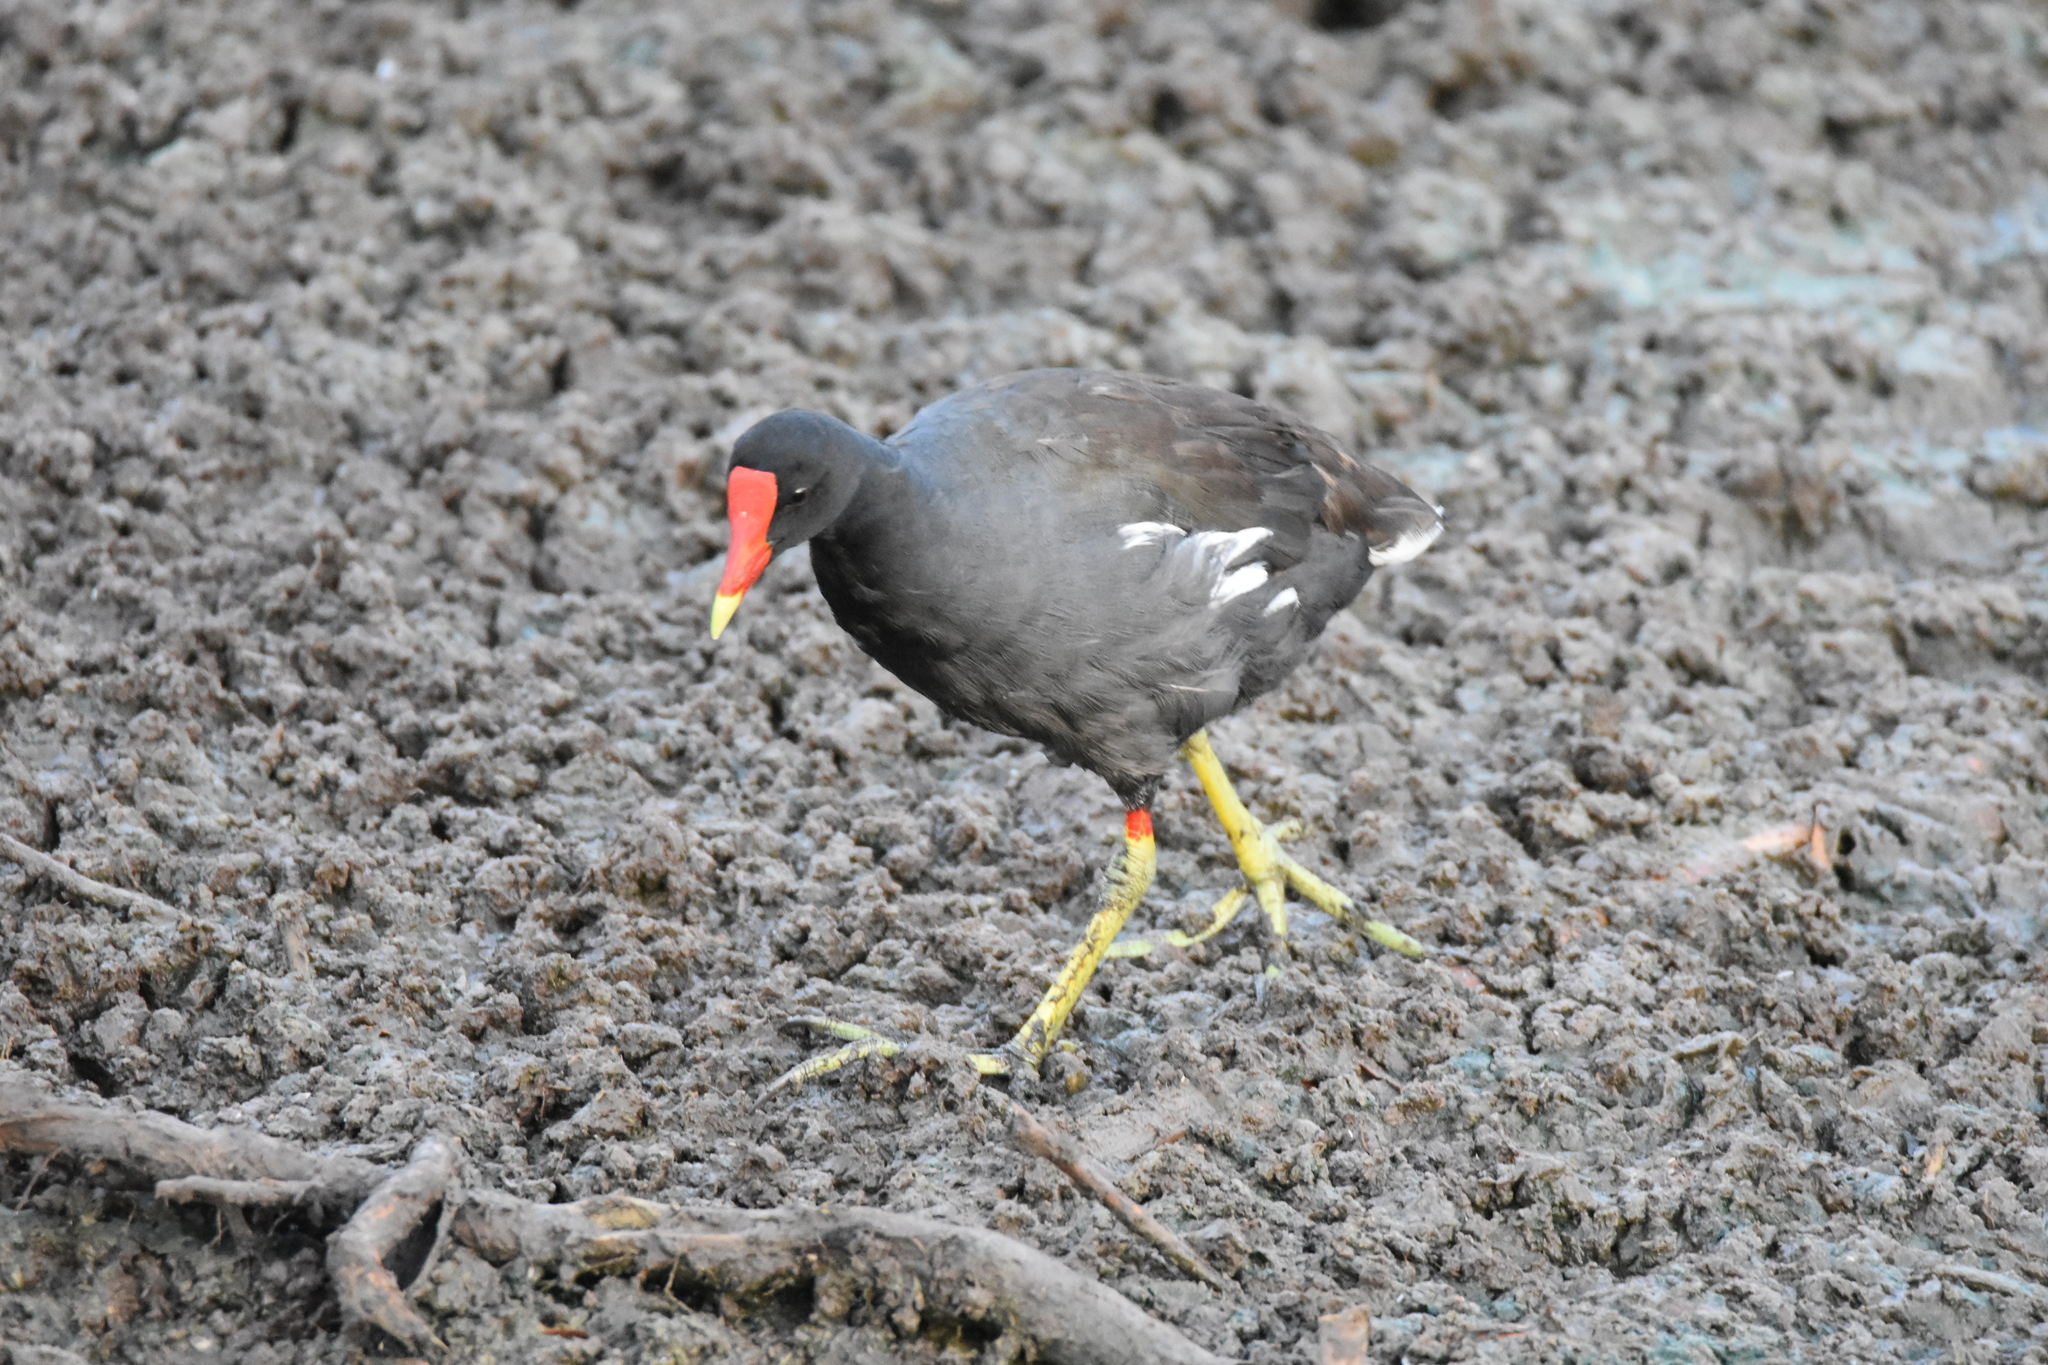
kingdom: Animalia
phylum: Chordata
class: Aves
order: Gruiformes
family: Rallidae
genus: Gallinula
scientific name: Gallinula chloropus
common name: Common moorhen
